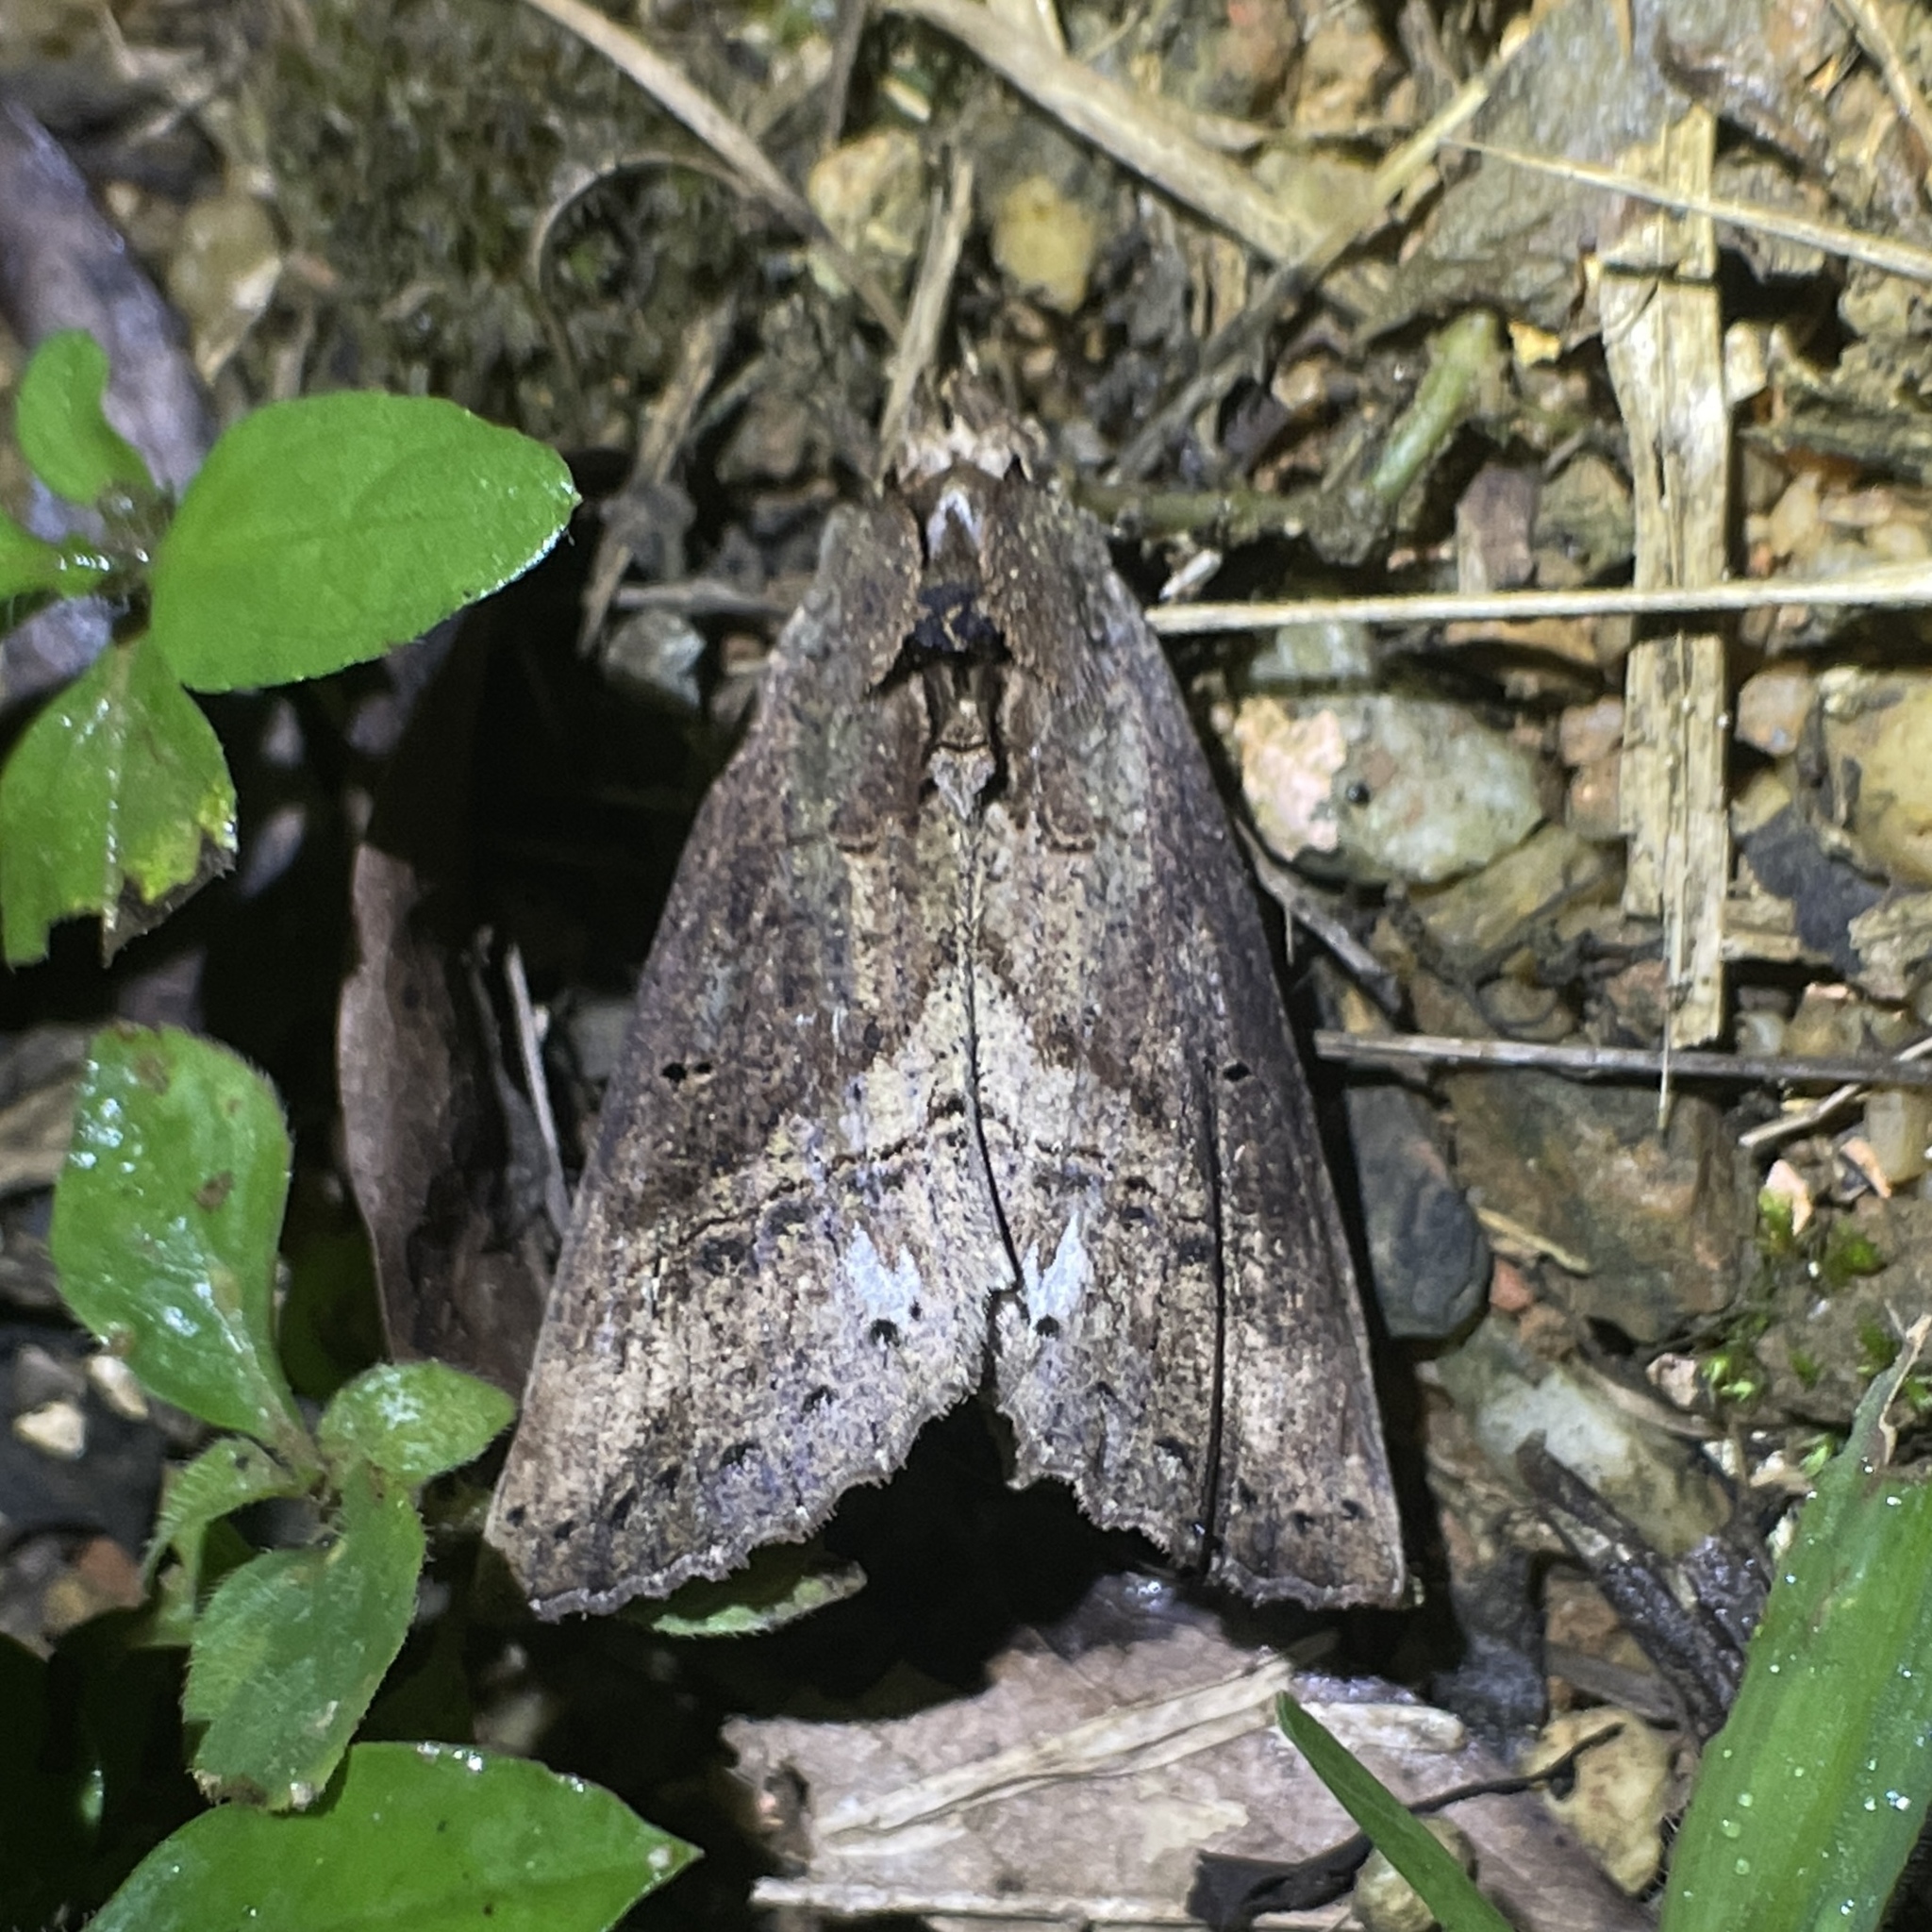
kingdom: Animalia
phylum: Arthropoda
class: Insecta
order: Lepidoptera
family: Notodontidae
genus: Bardaxima
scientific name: Bardaxima marcida
